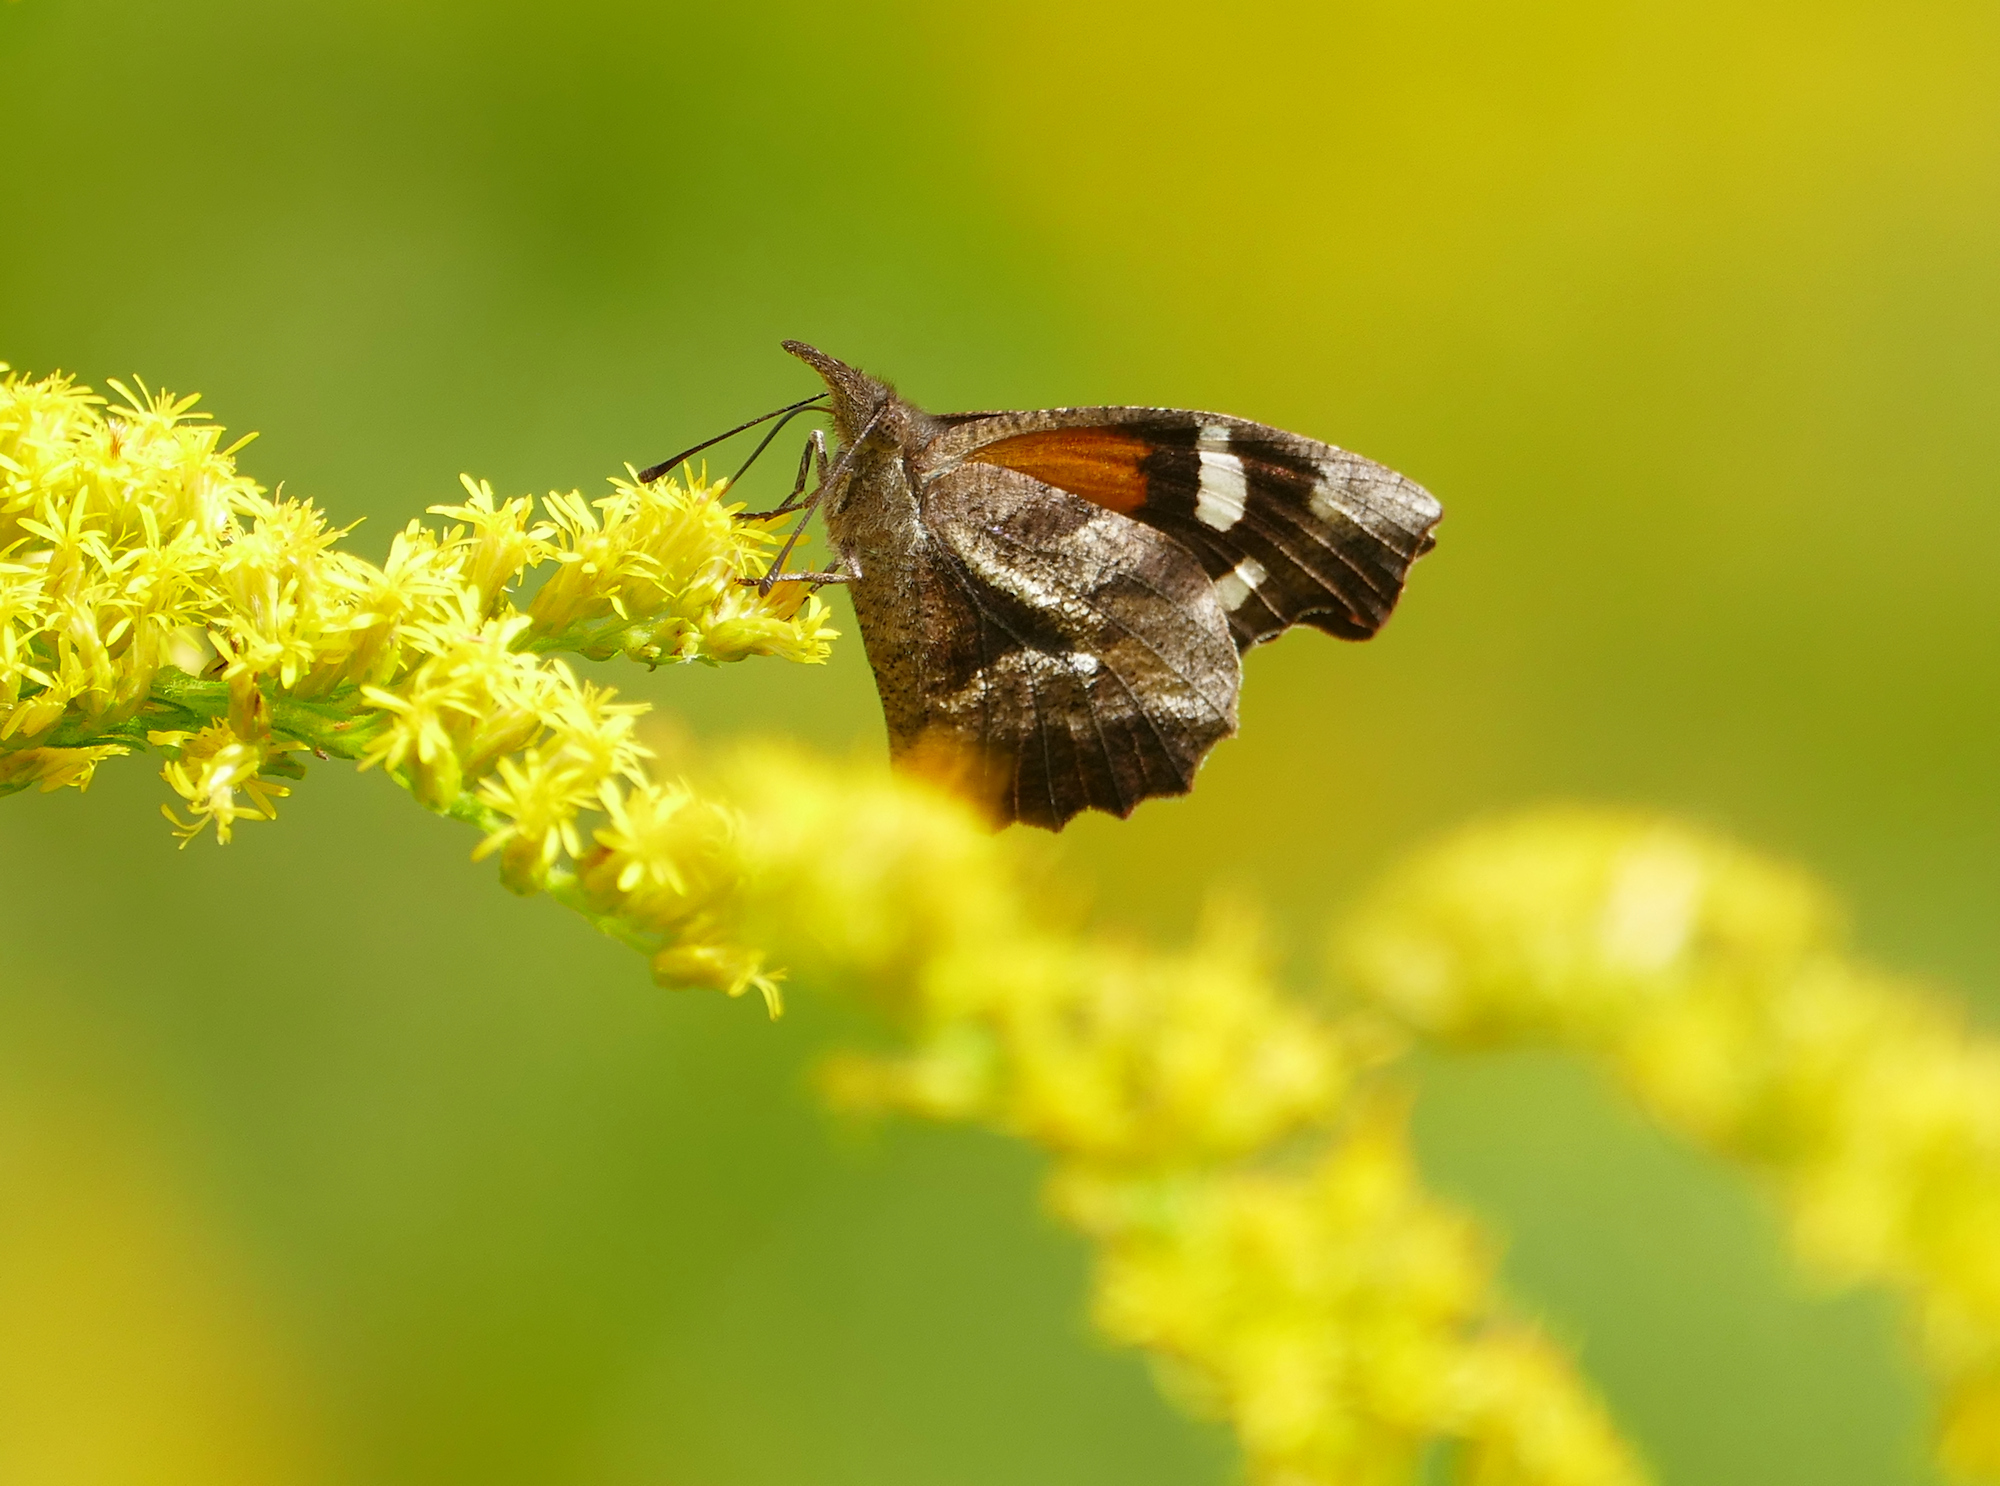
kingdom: Animalia
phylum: Arthropoda
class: Insecta
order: Lepidoptera
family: Nymphalidae
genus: Libytheana
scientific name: Libytheana carinenta
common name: American snout
